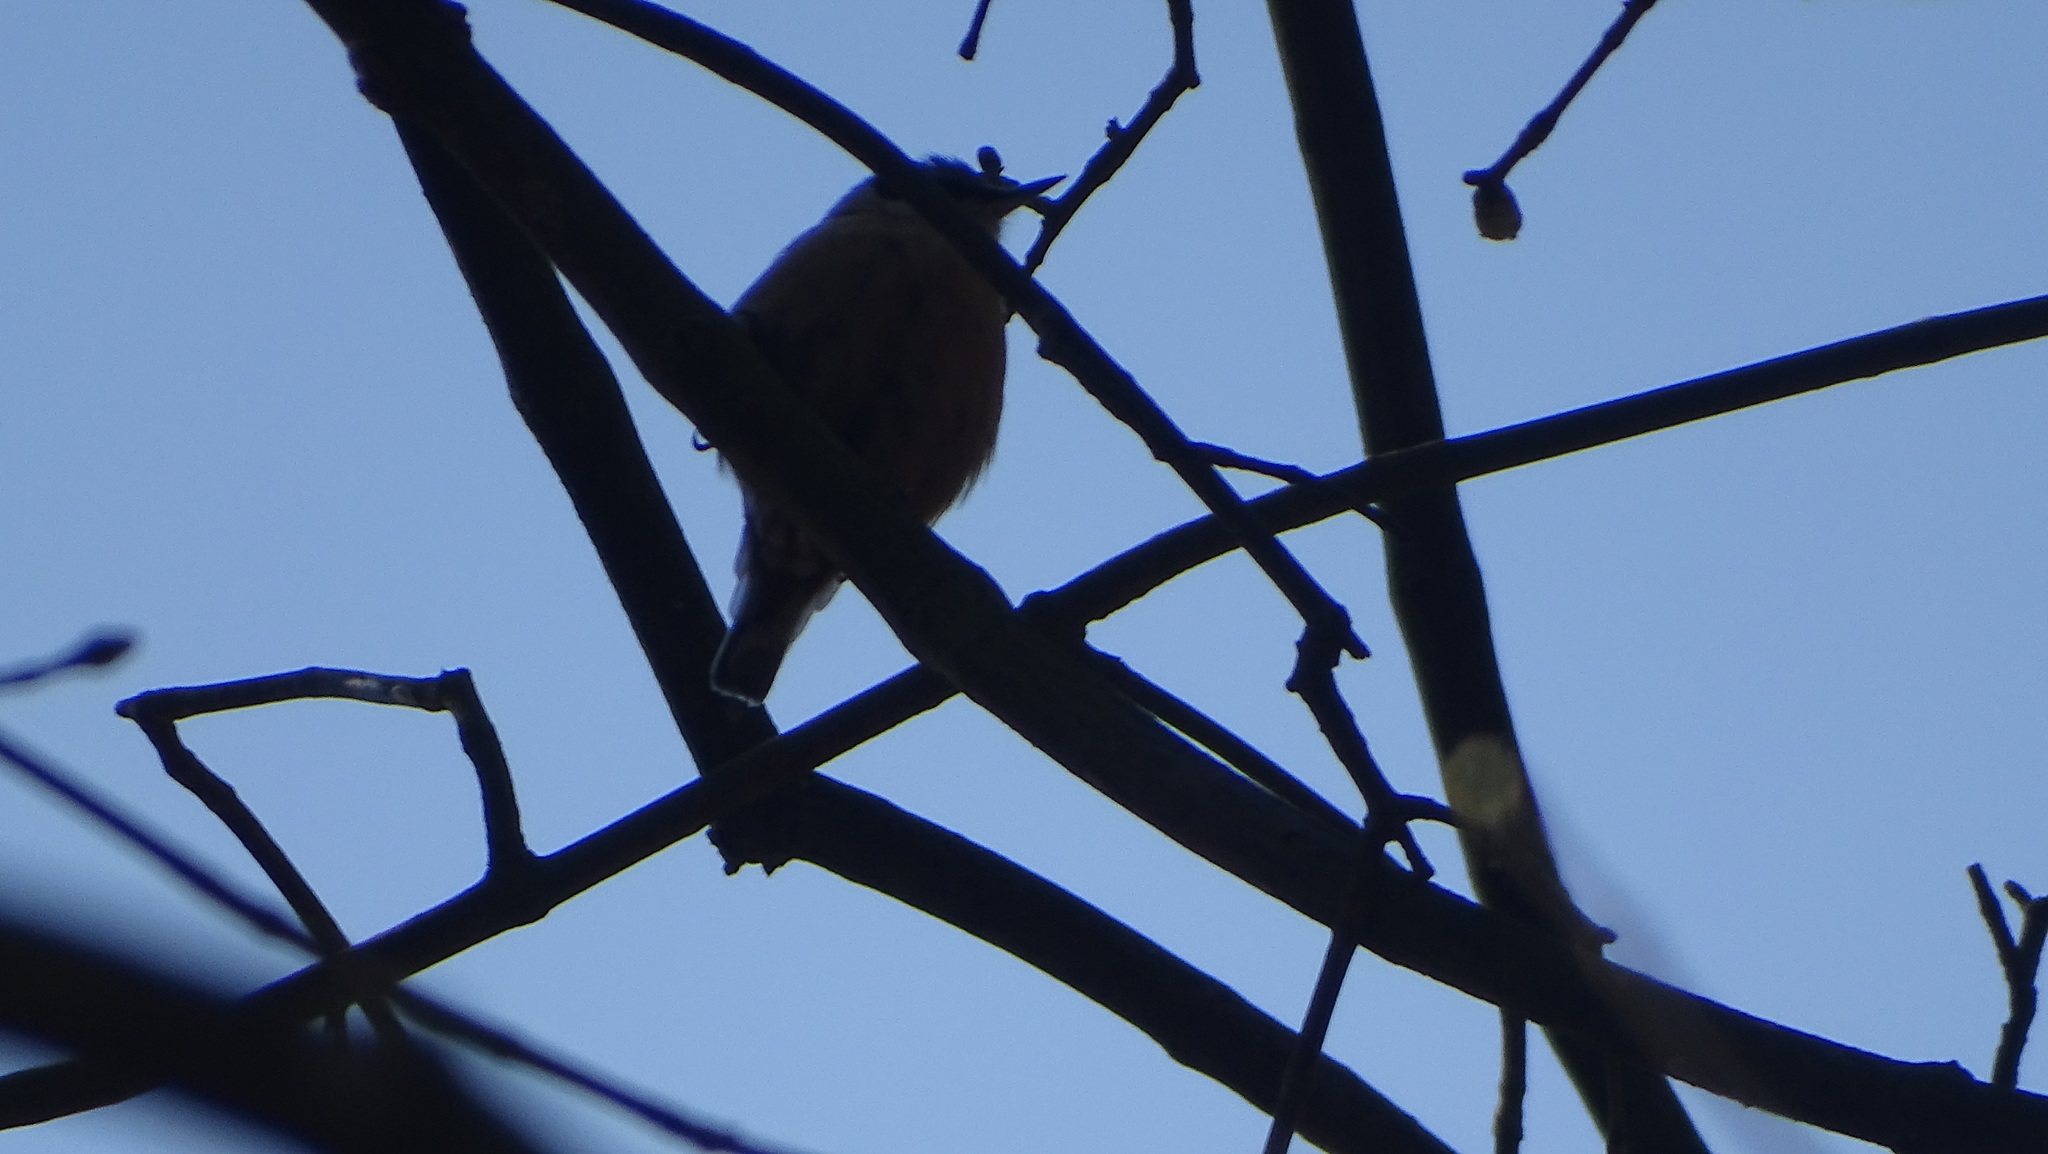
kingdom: Animalia
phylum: Chordata
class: Aves
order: Passeriformes
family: Sittidae
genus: Sitta
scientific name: Sitta europaea
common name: Eurasian nuthatch
